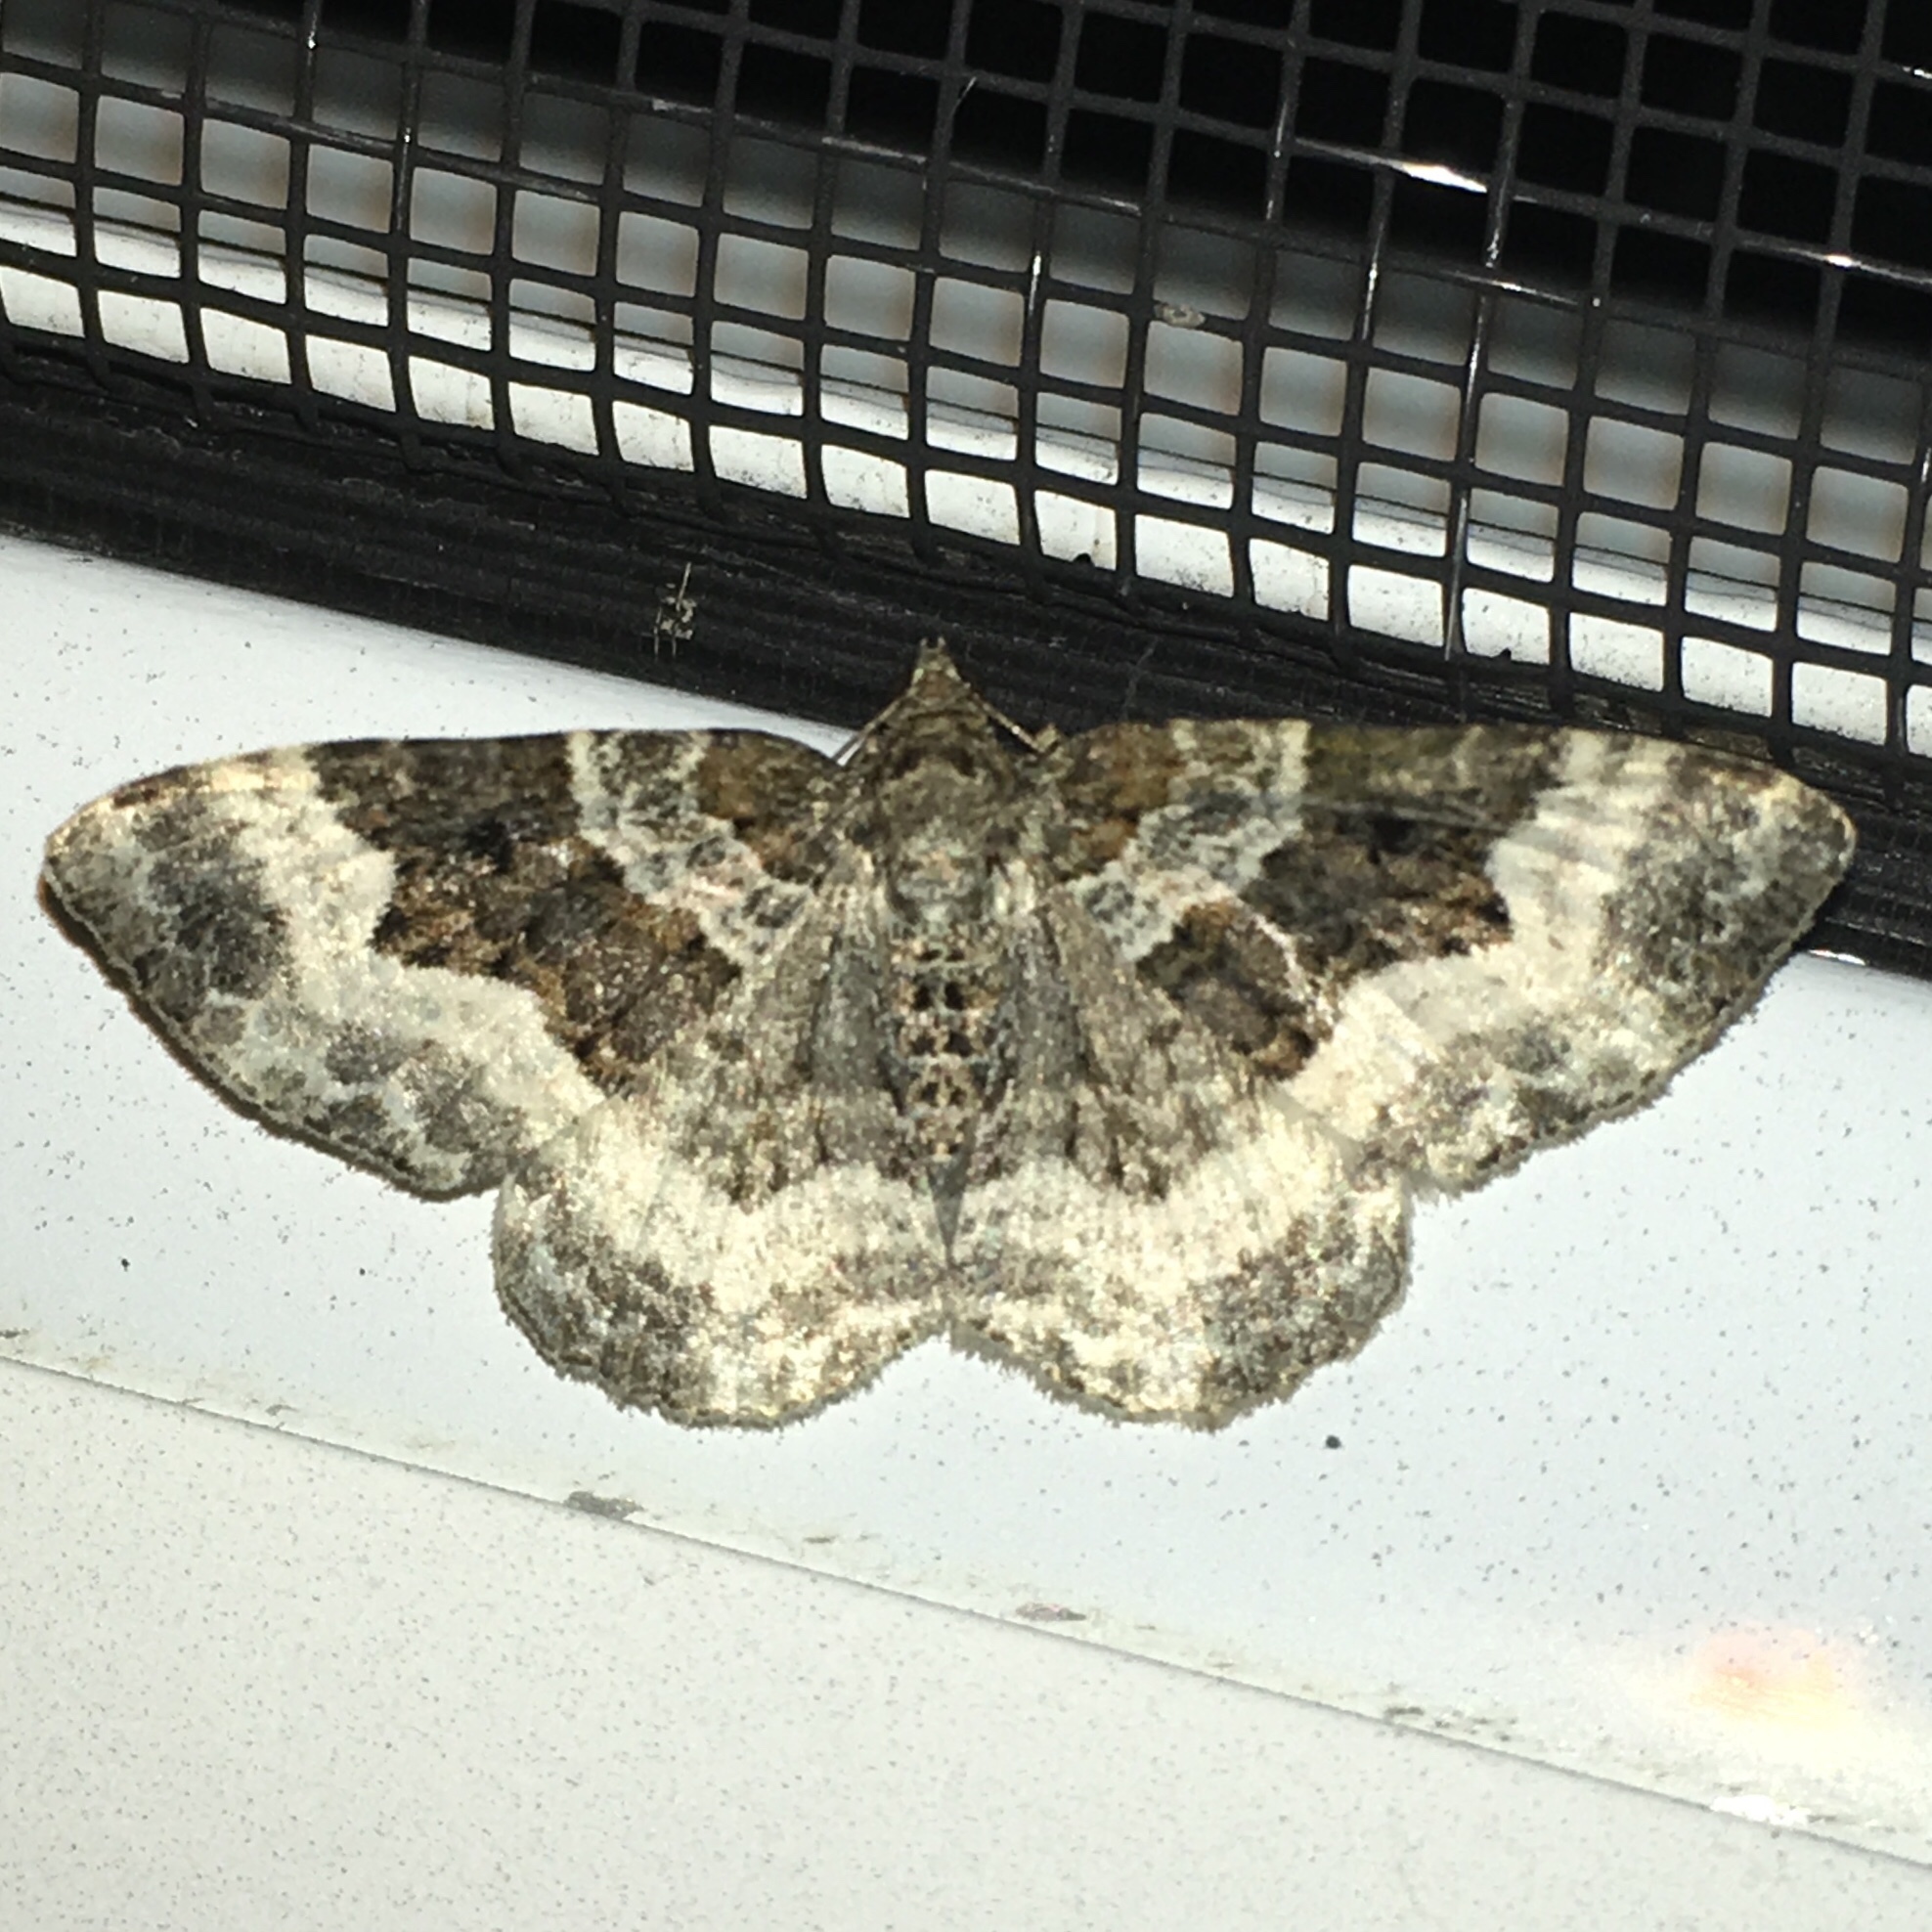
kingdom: Animalia
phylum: Arthropoda
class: Insecta
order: Lepidoptera
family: Geometridae
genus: Epirrhoe
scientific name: Epirrhoe alternata
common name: Common carpet
